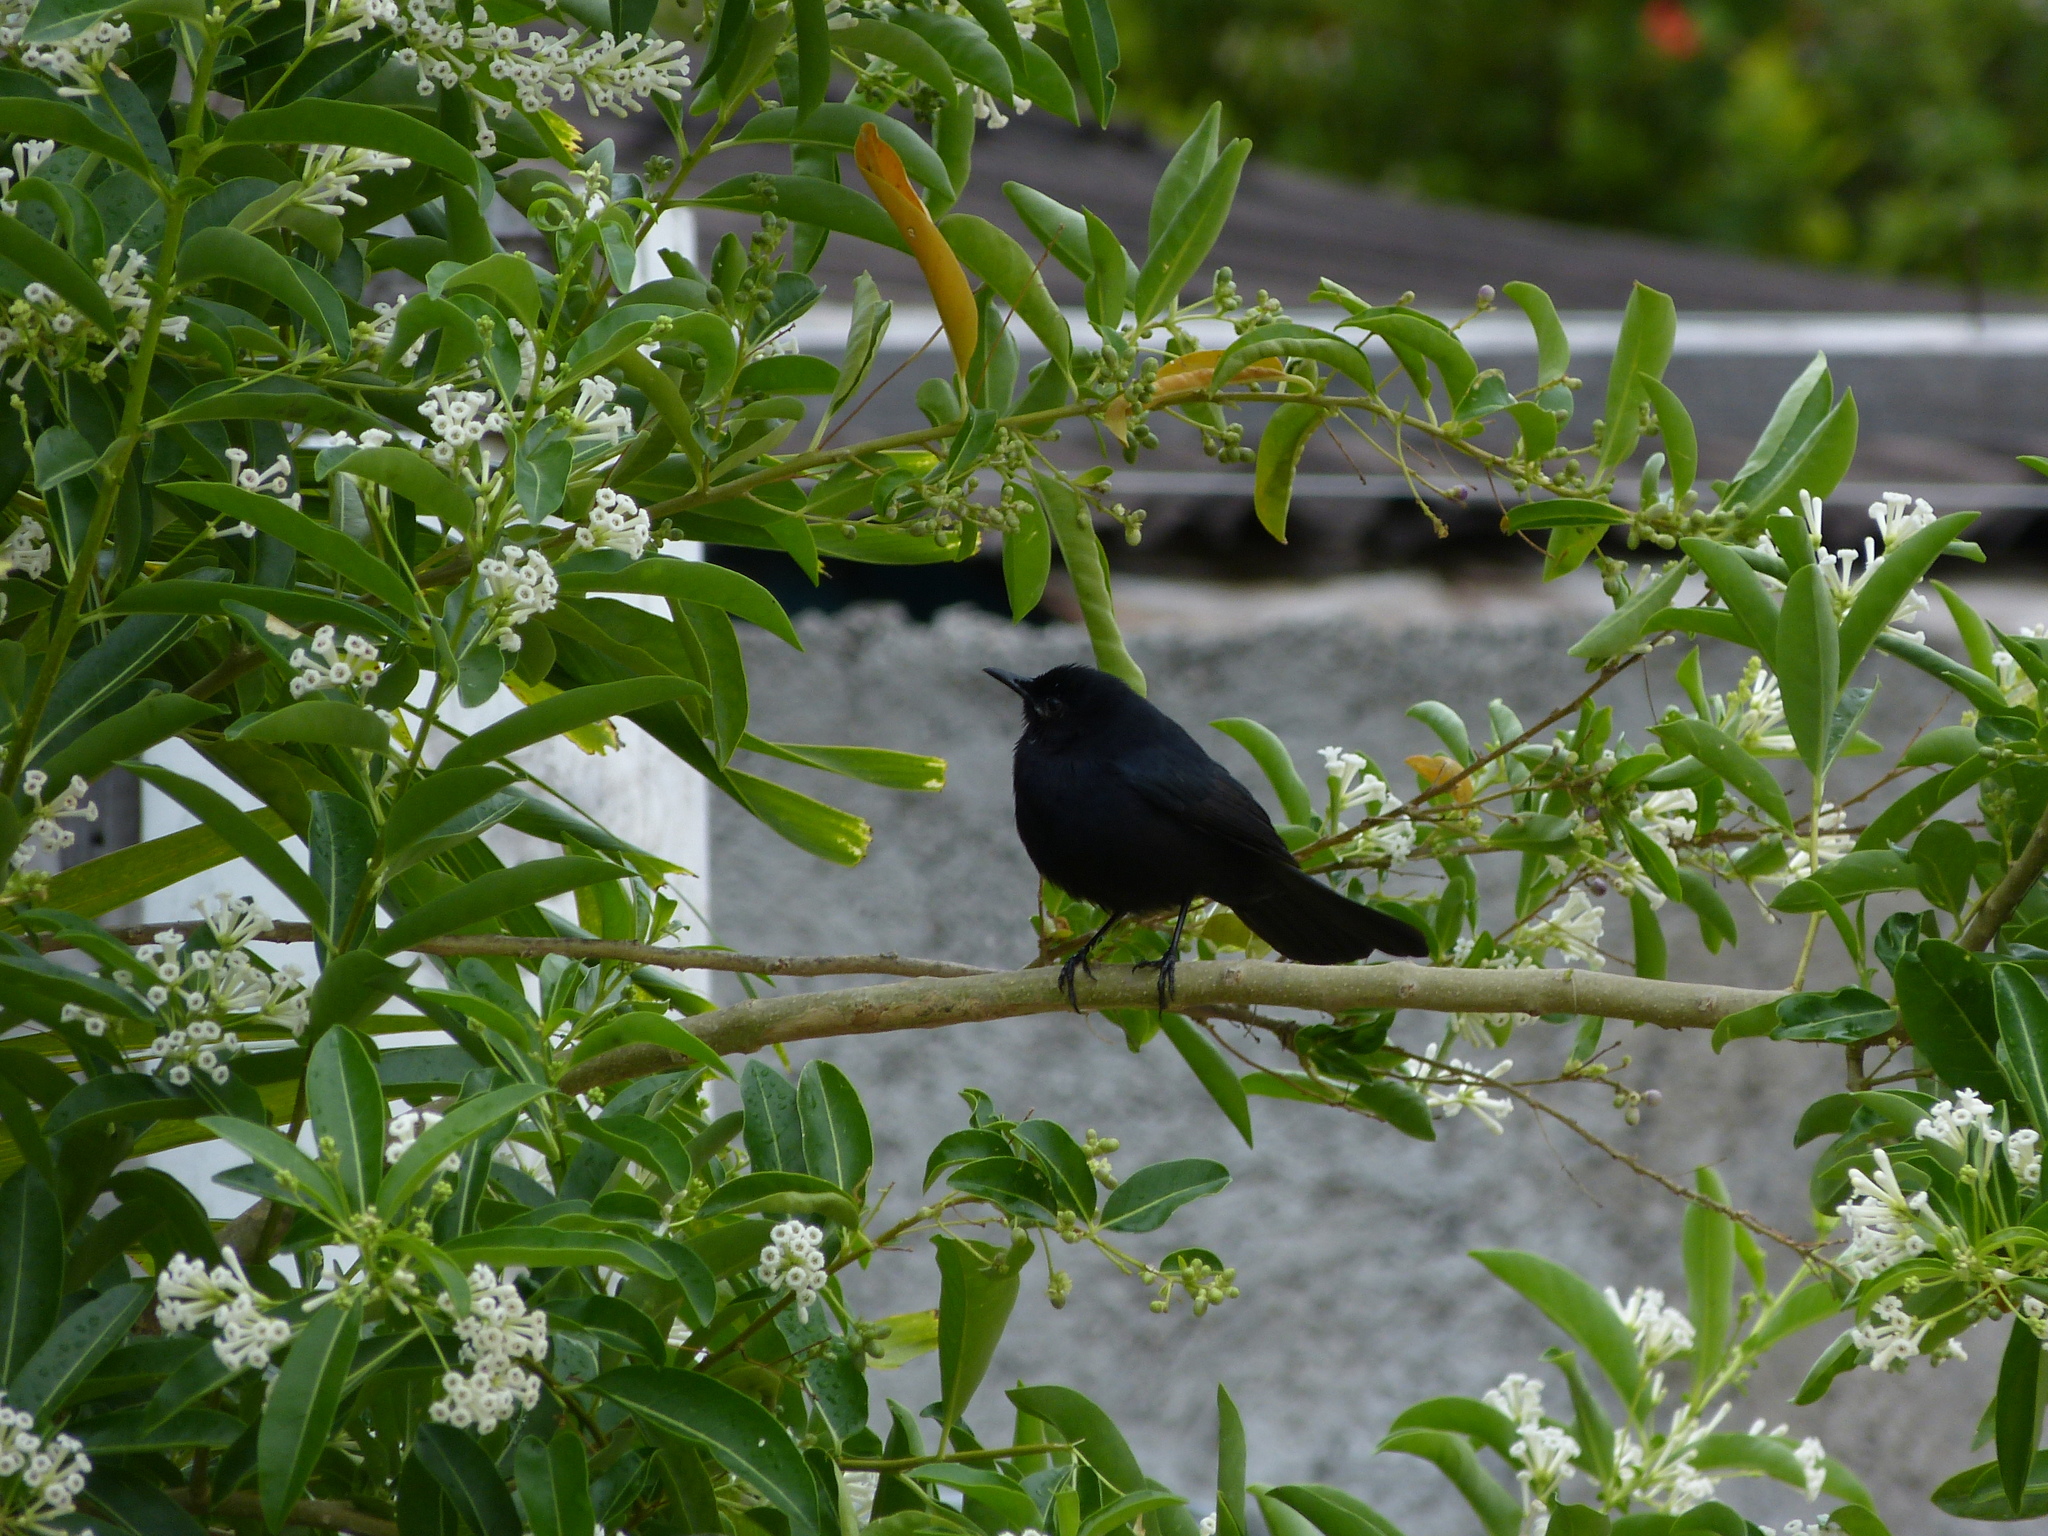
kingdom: Animalia
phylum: Chordata
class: Aves
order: Passeriformes
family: Icteridae
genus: Dives
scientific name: Dives dives
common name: Melodious blackbird
